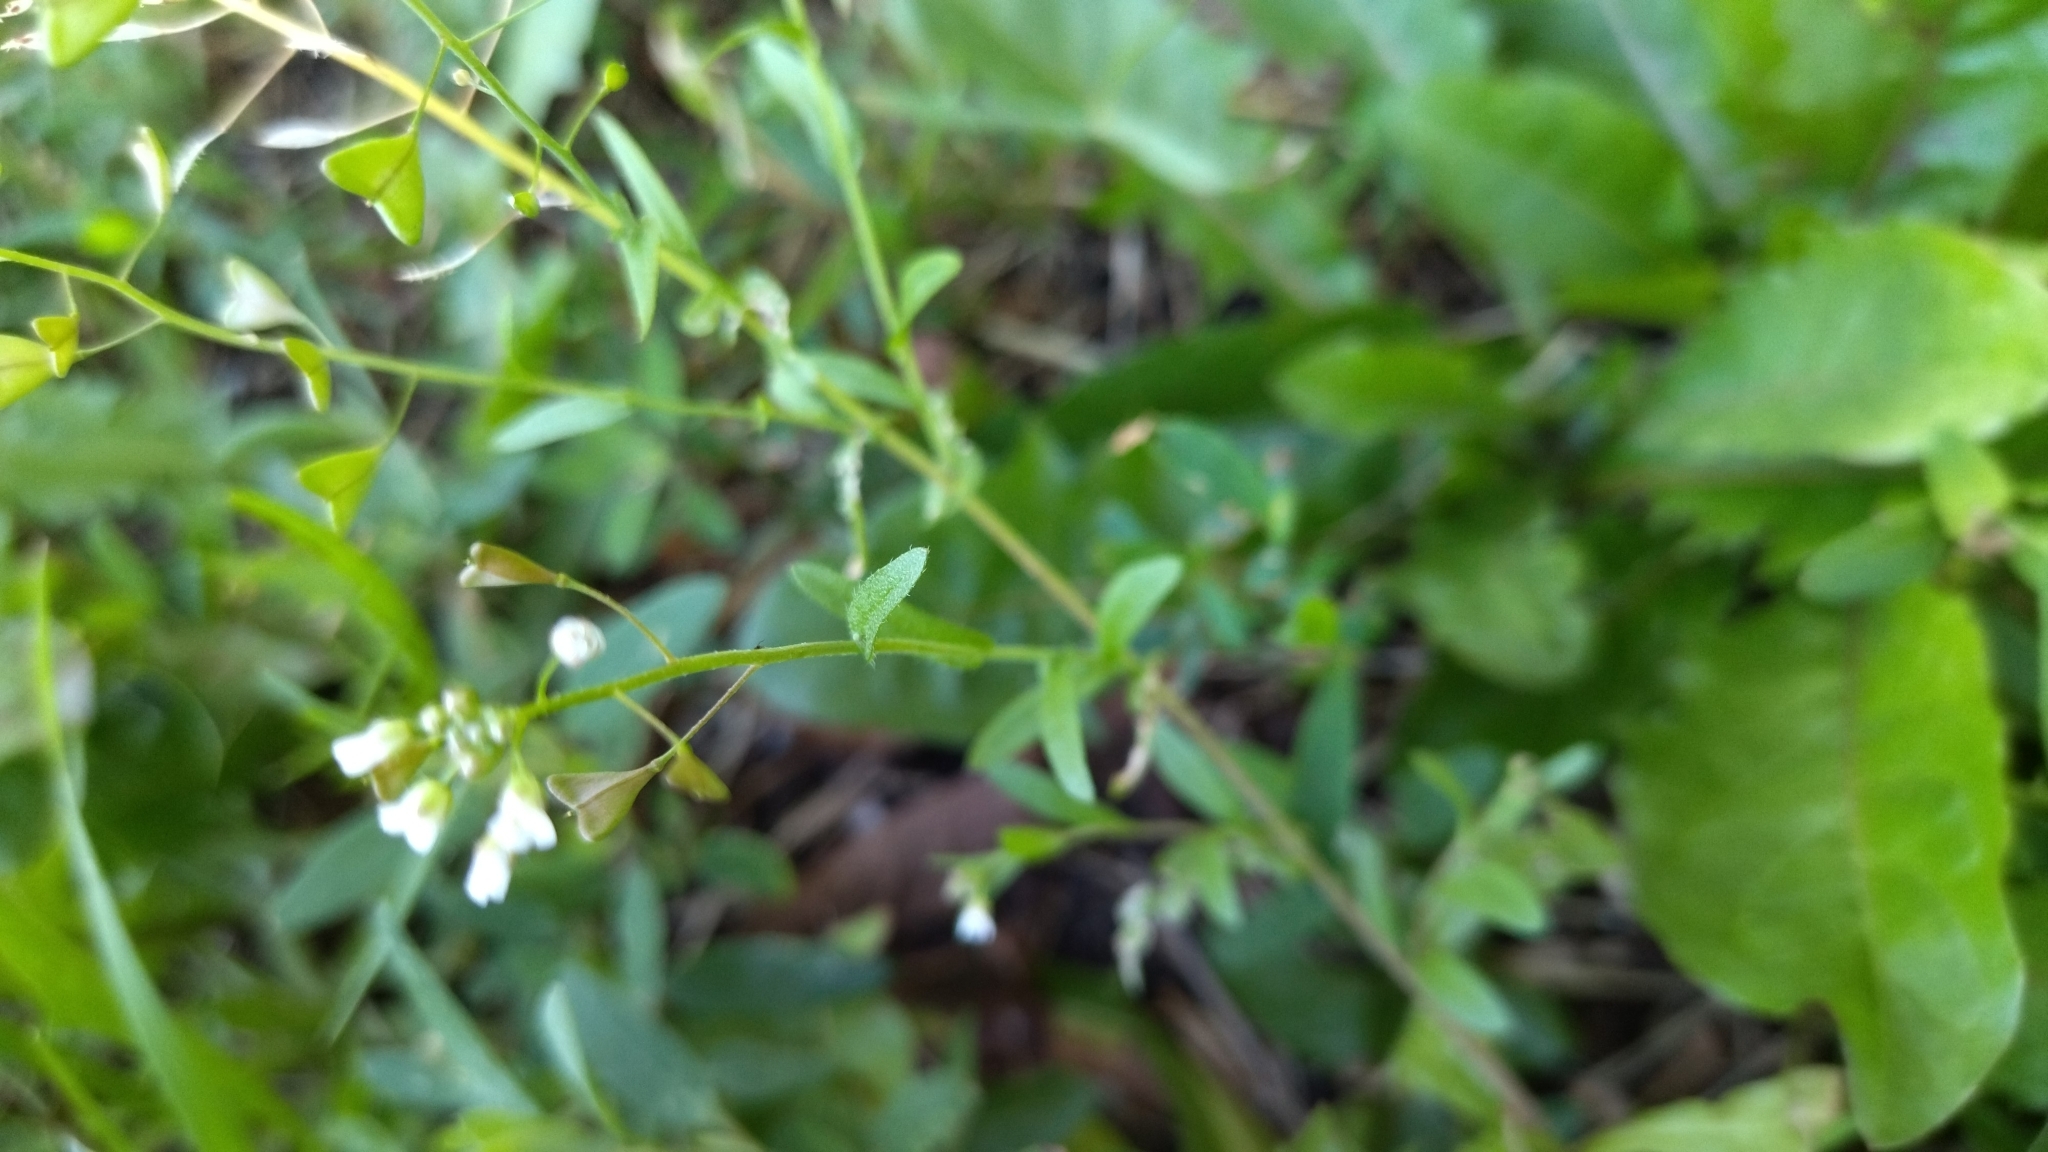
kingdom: Plantae
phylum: Tracheophyta
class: Magnoliopsida
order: Brassicales
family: Brassicaceae
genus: Capsella
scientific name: Capsella bursa-pastoris
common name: Shepherd's purse
